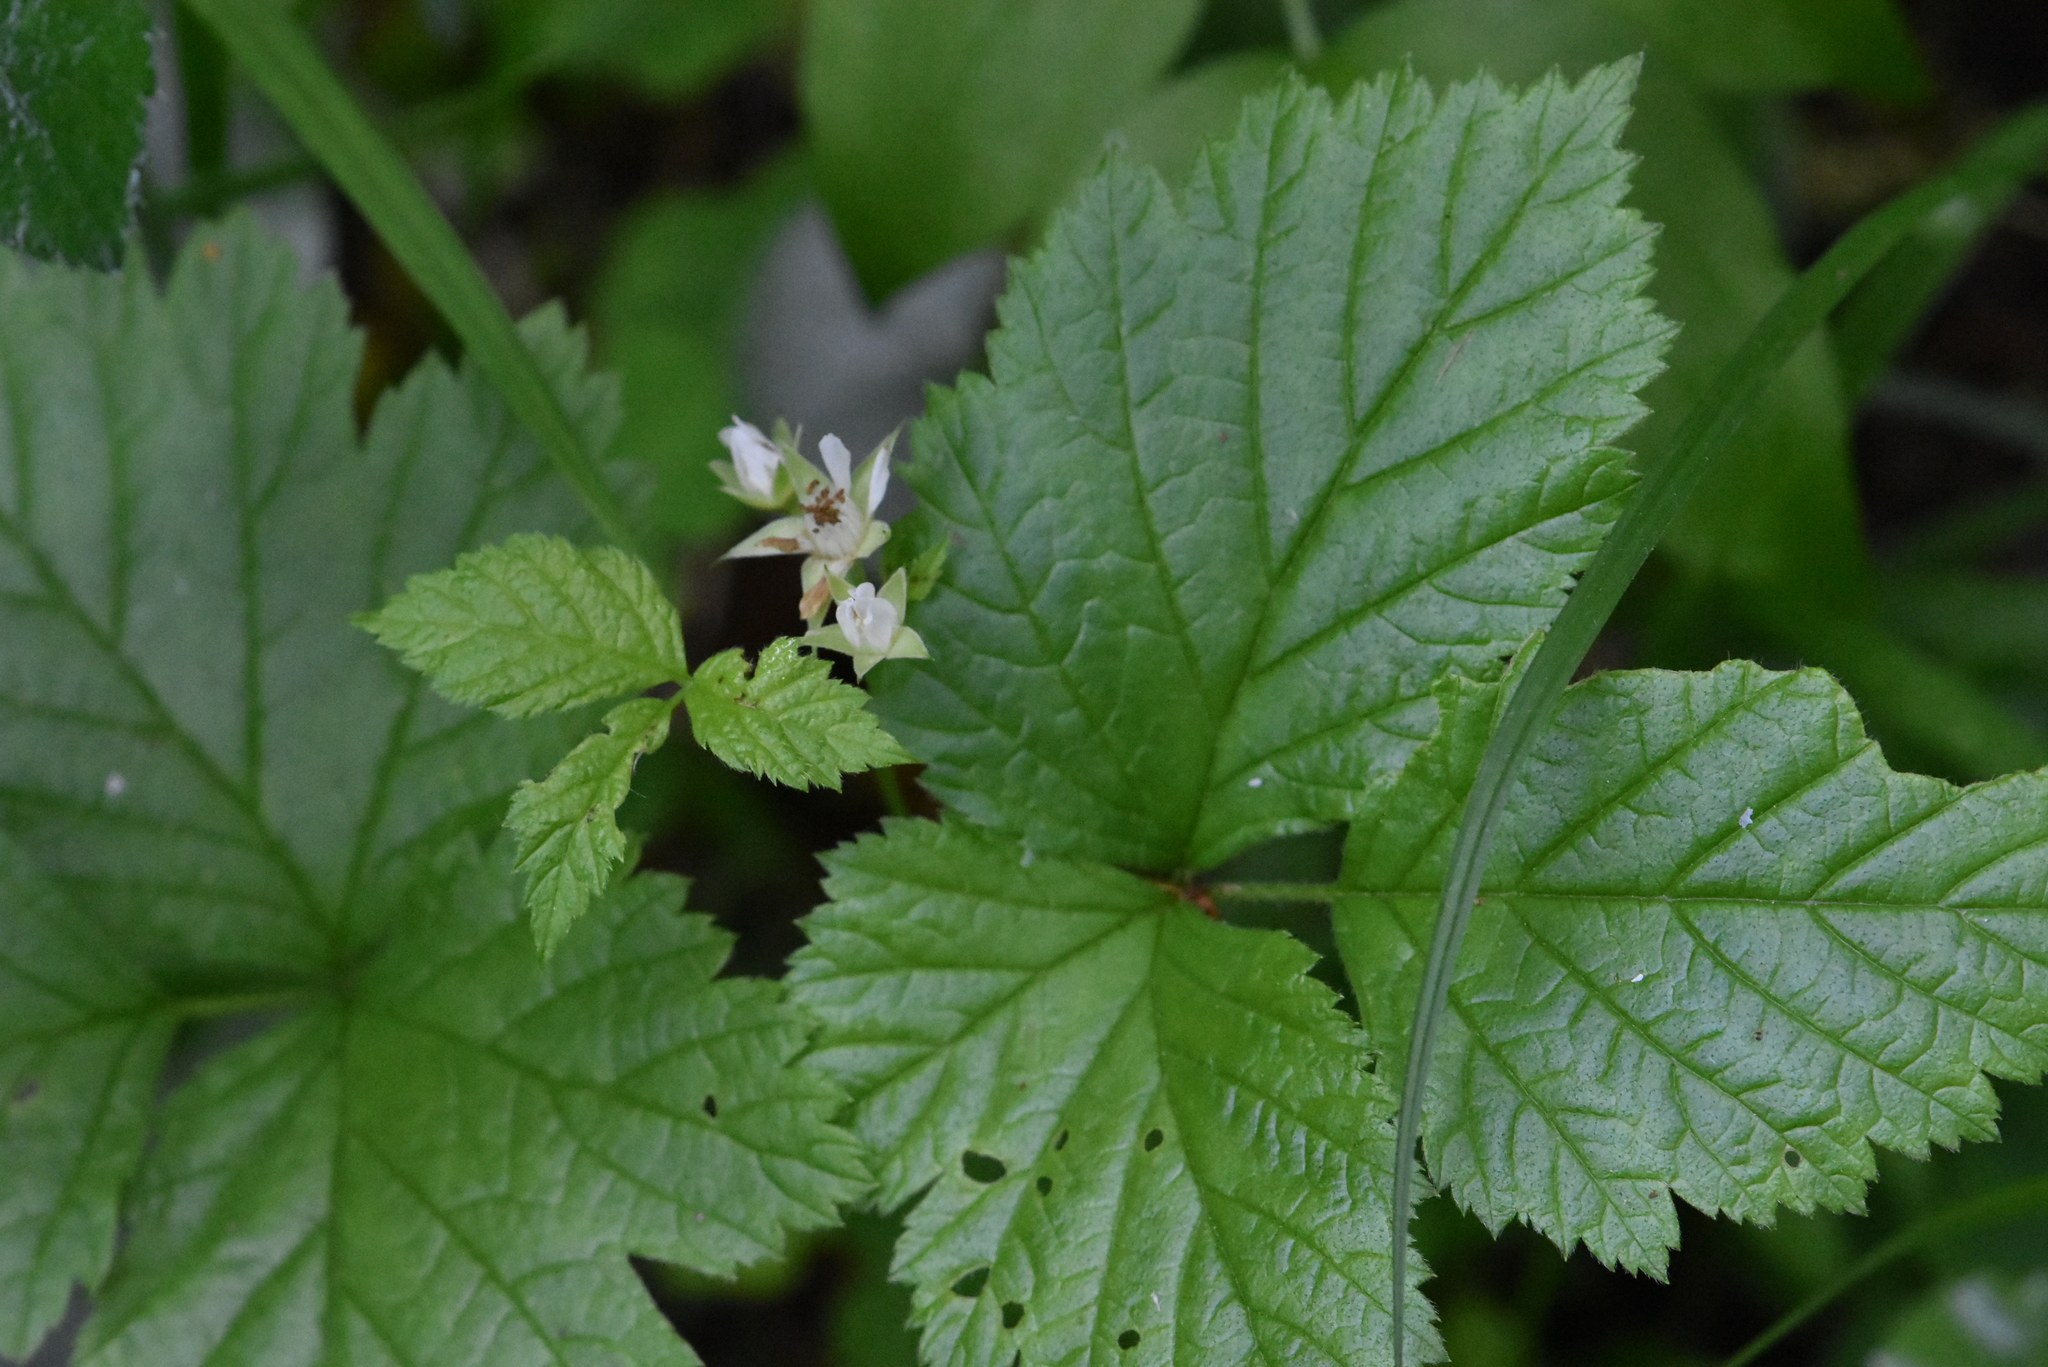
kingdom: Plantae
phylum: Tracheophyta
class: Magnoliopsida
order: Rosales
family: Rosaceae
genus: Rubus
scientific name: Rubus saxatilis
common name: Stone bramble
